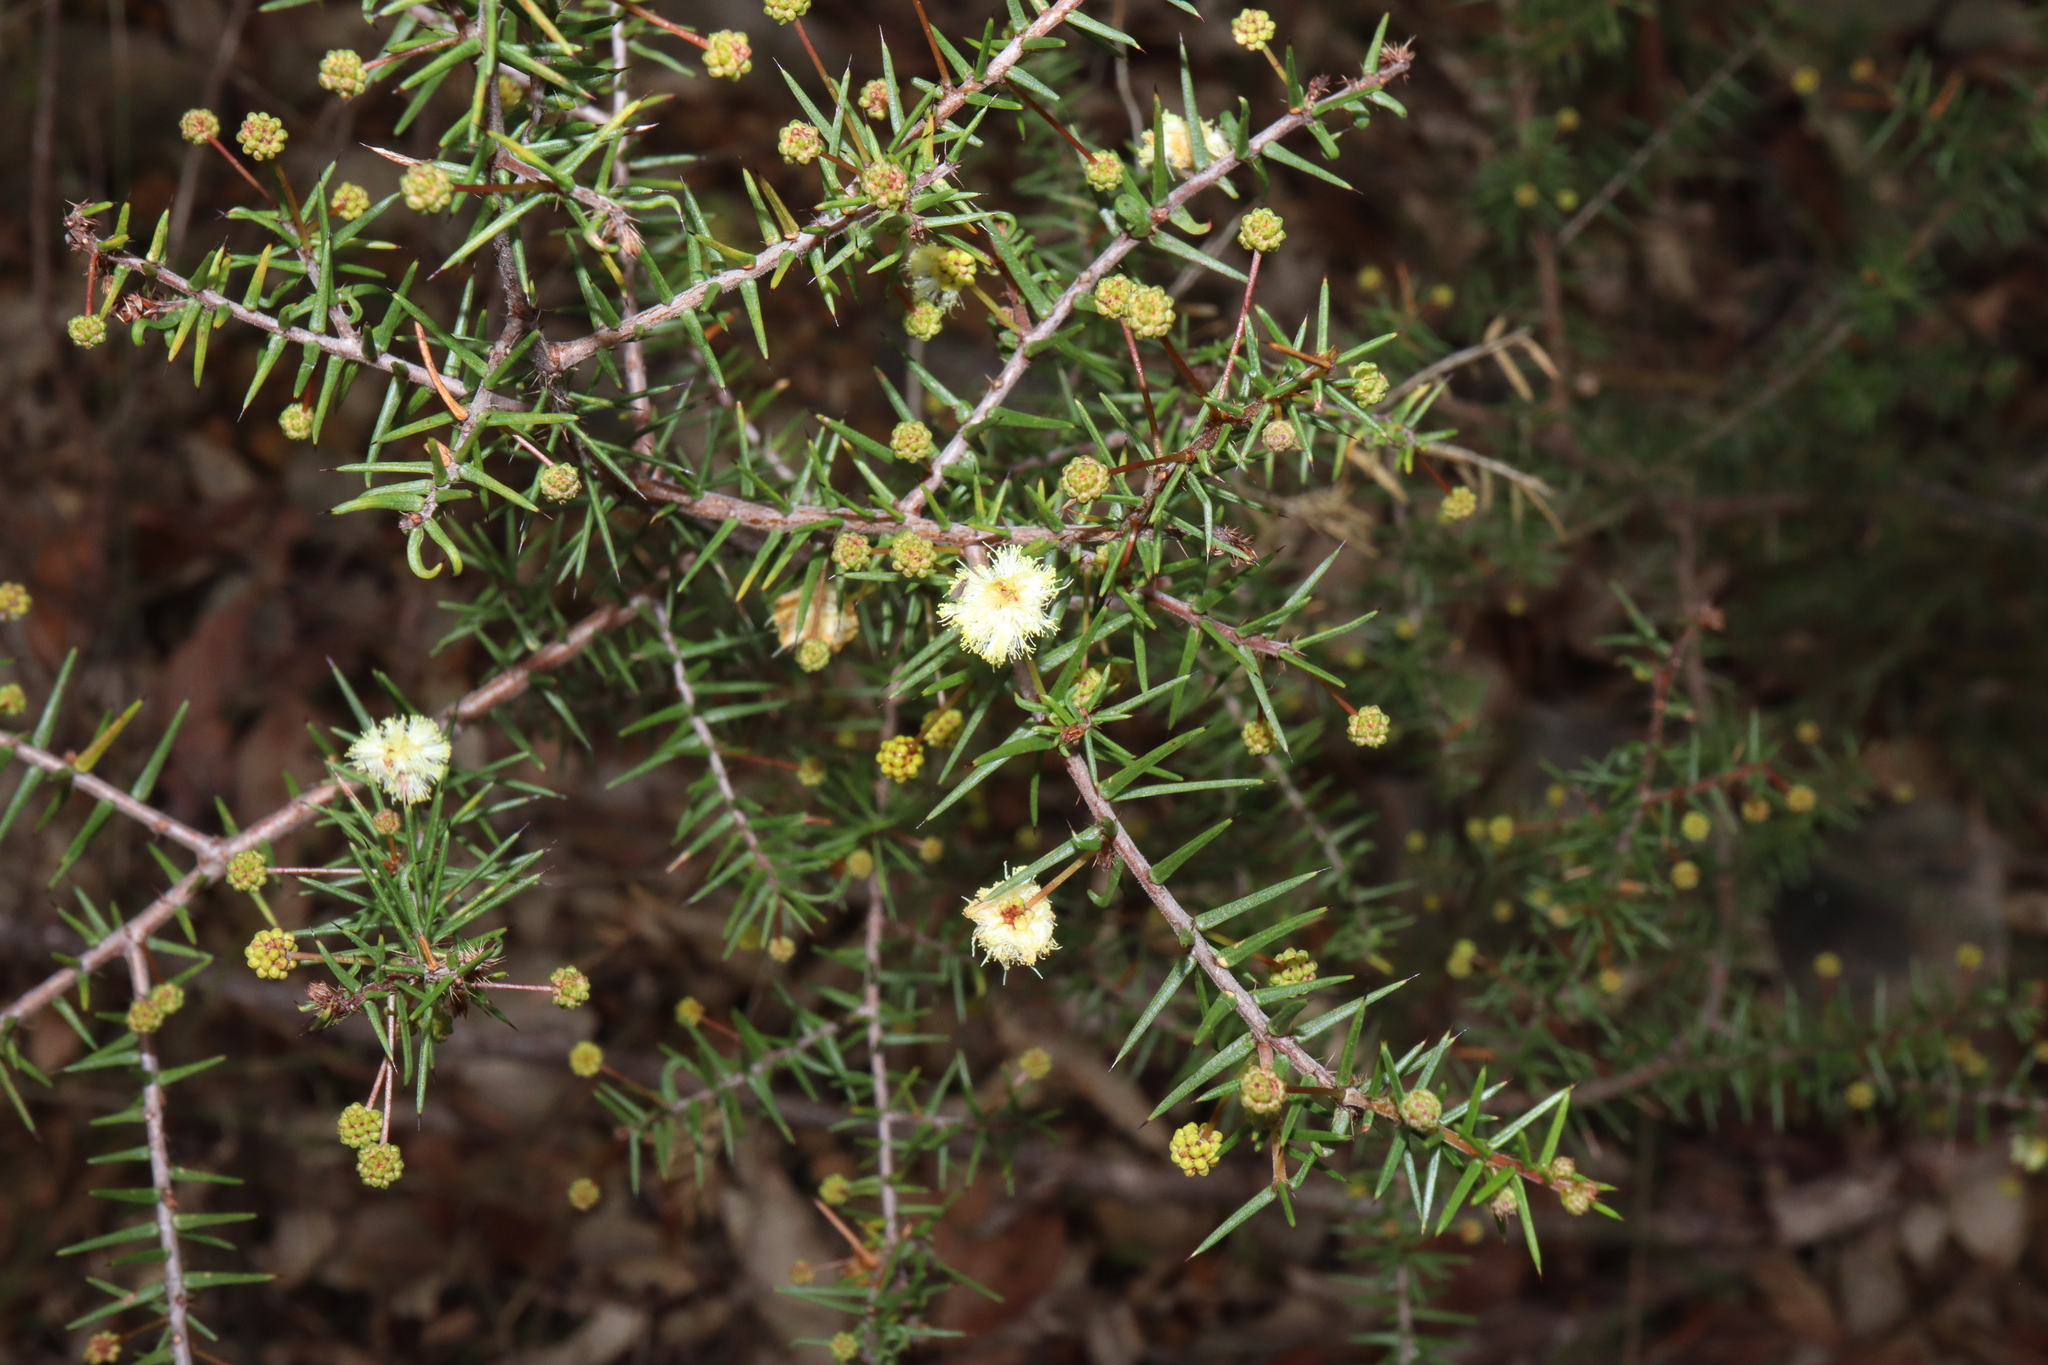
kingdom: Plantae
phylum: Tracheophyta
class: Magnoliopsida
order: Fabales
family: Fabaceae
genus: Acacia
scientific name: Acacia ulicifolia
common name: Juniper wattle
